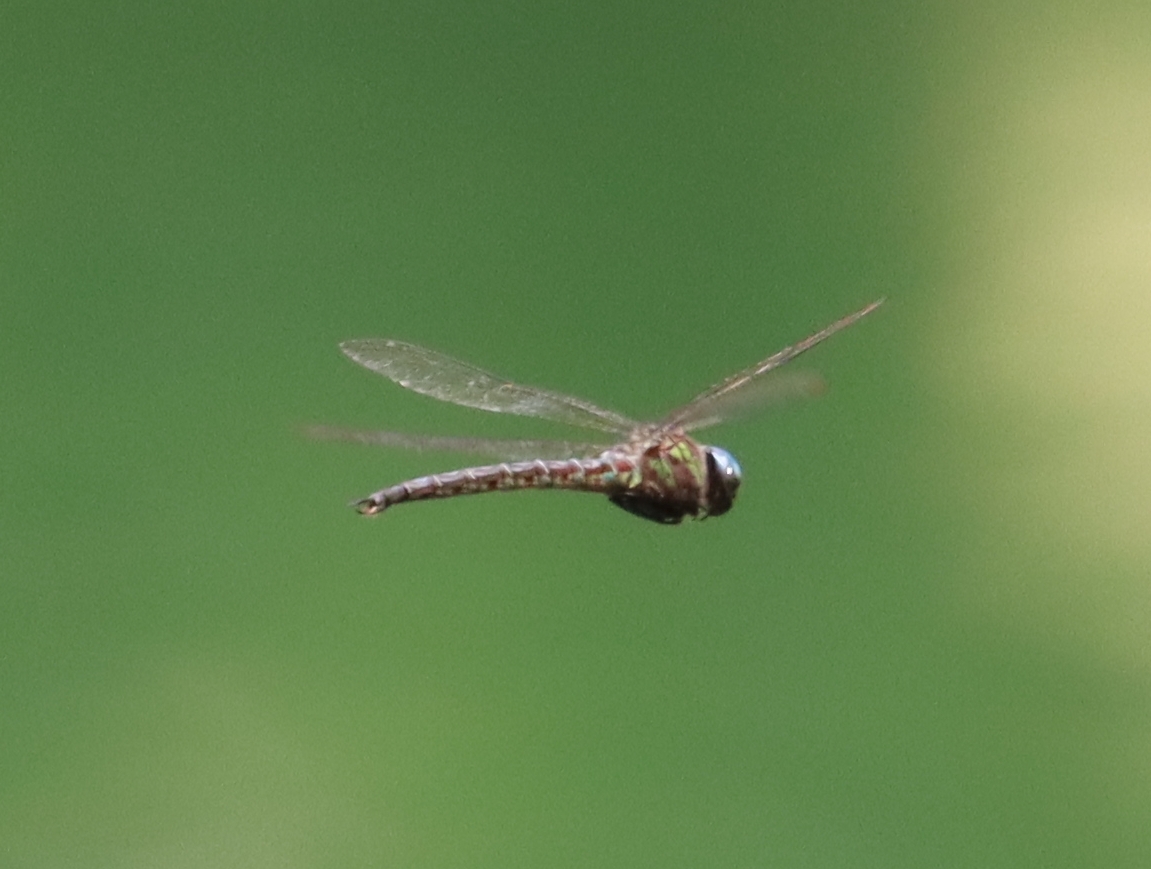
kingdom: Animalia
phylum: Arthropoda
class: Insecta
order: Odonata
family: Aeshnidae
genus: Nasiaeschna
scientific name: Nasiaeschna pentacantha
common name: Cyrano darner
